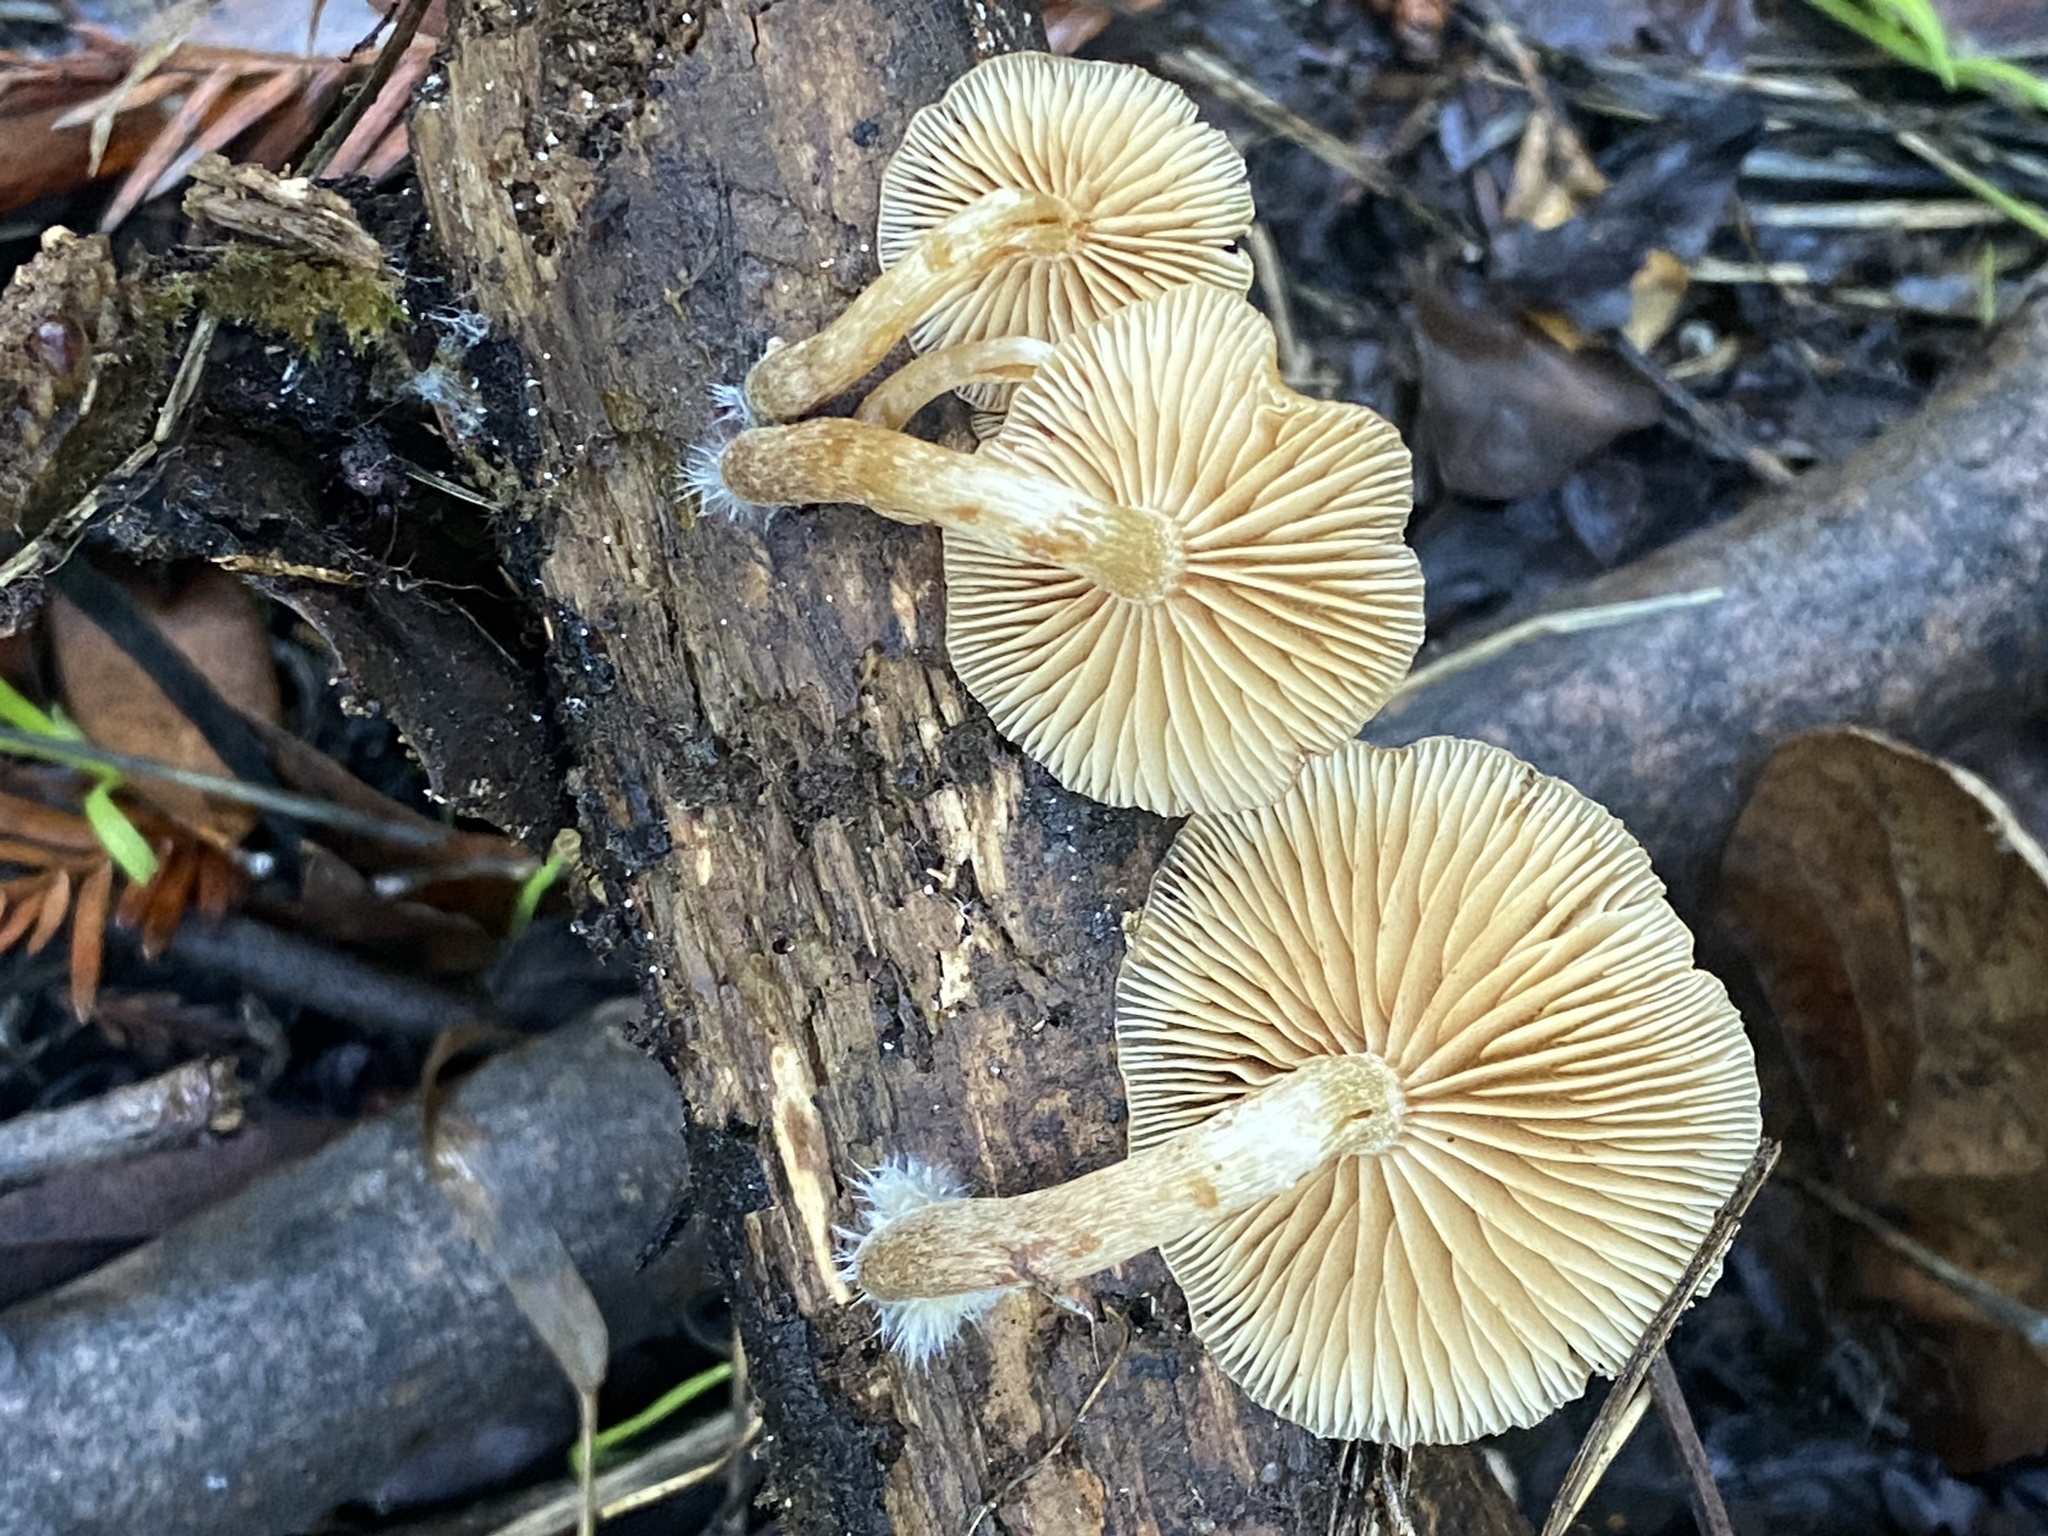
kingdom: Fungi
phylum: Basidiomycota
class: Agaricomycetes
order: Agaricales
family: Hymenogastraceae
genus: Galerina
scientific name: Galerina marginata
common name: Funeral bell
